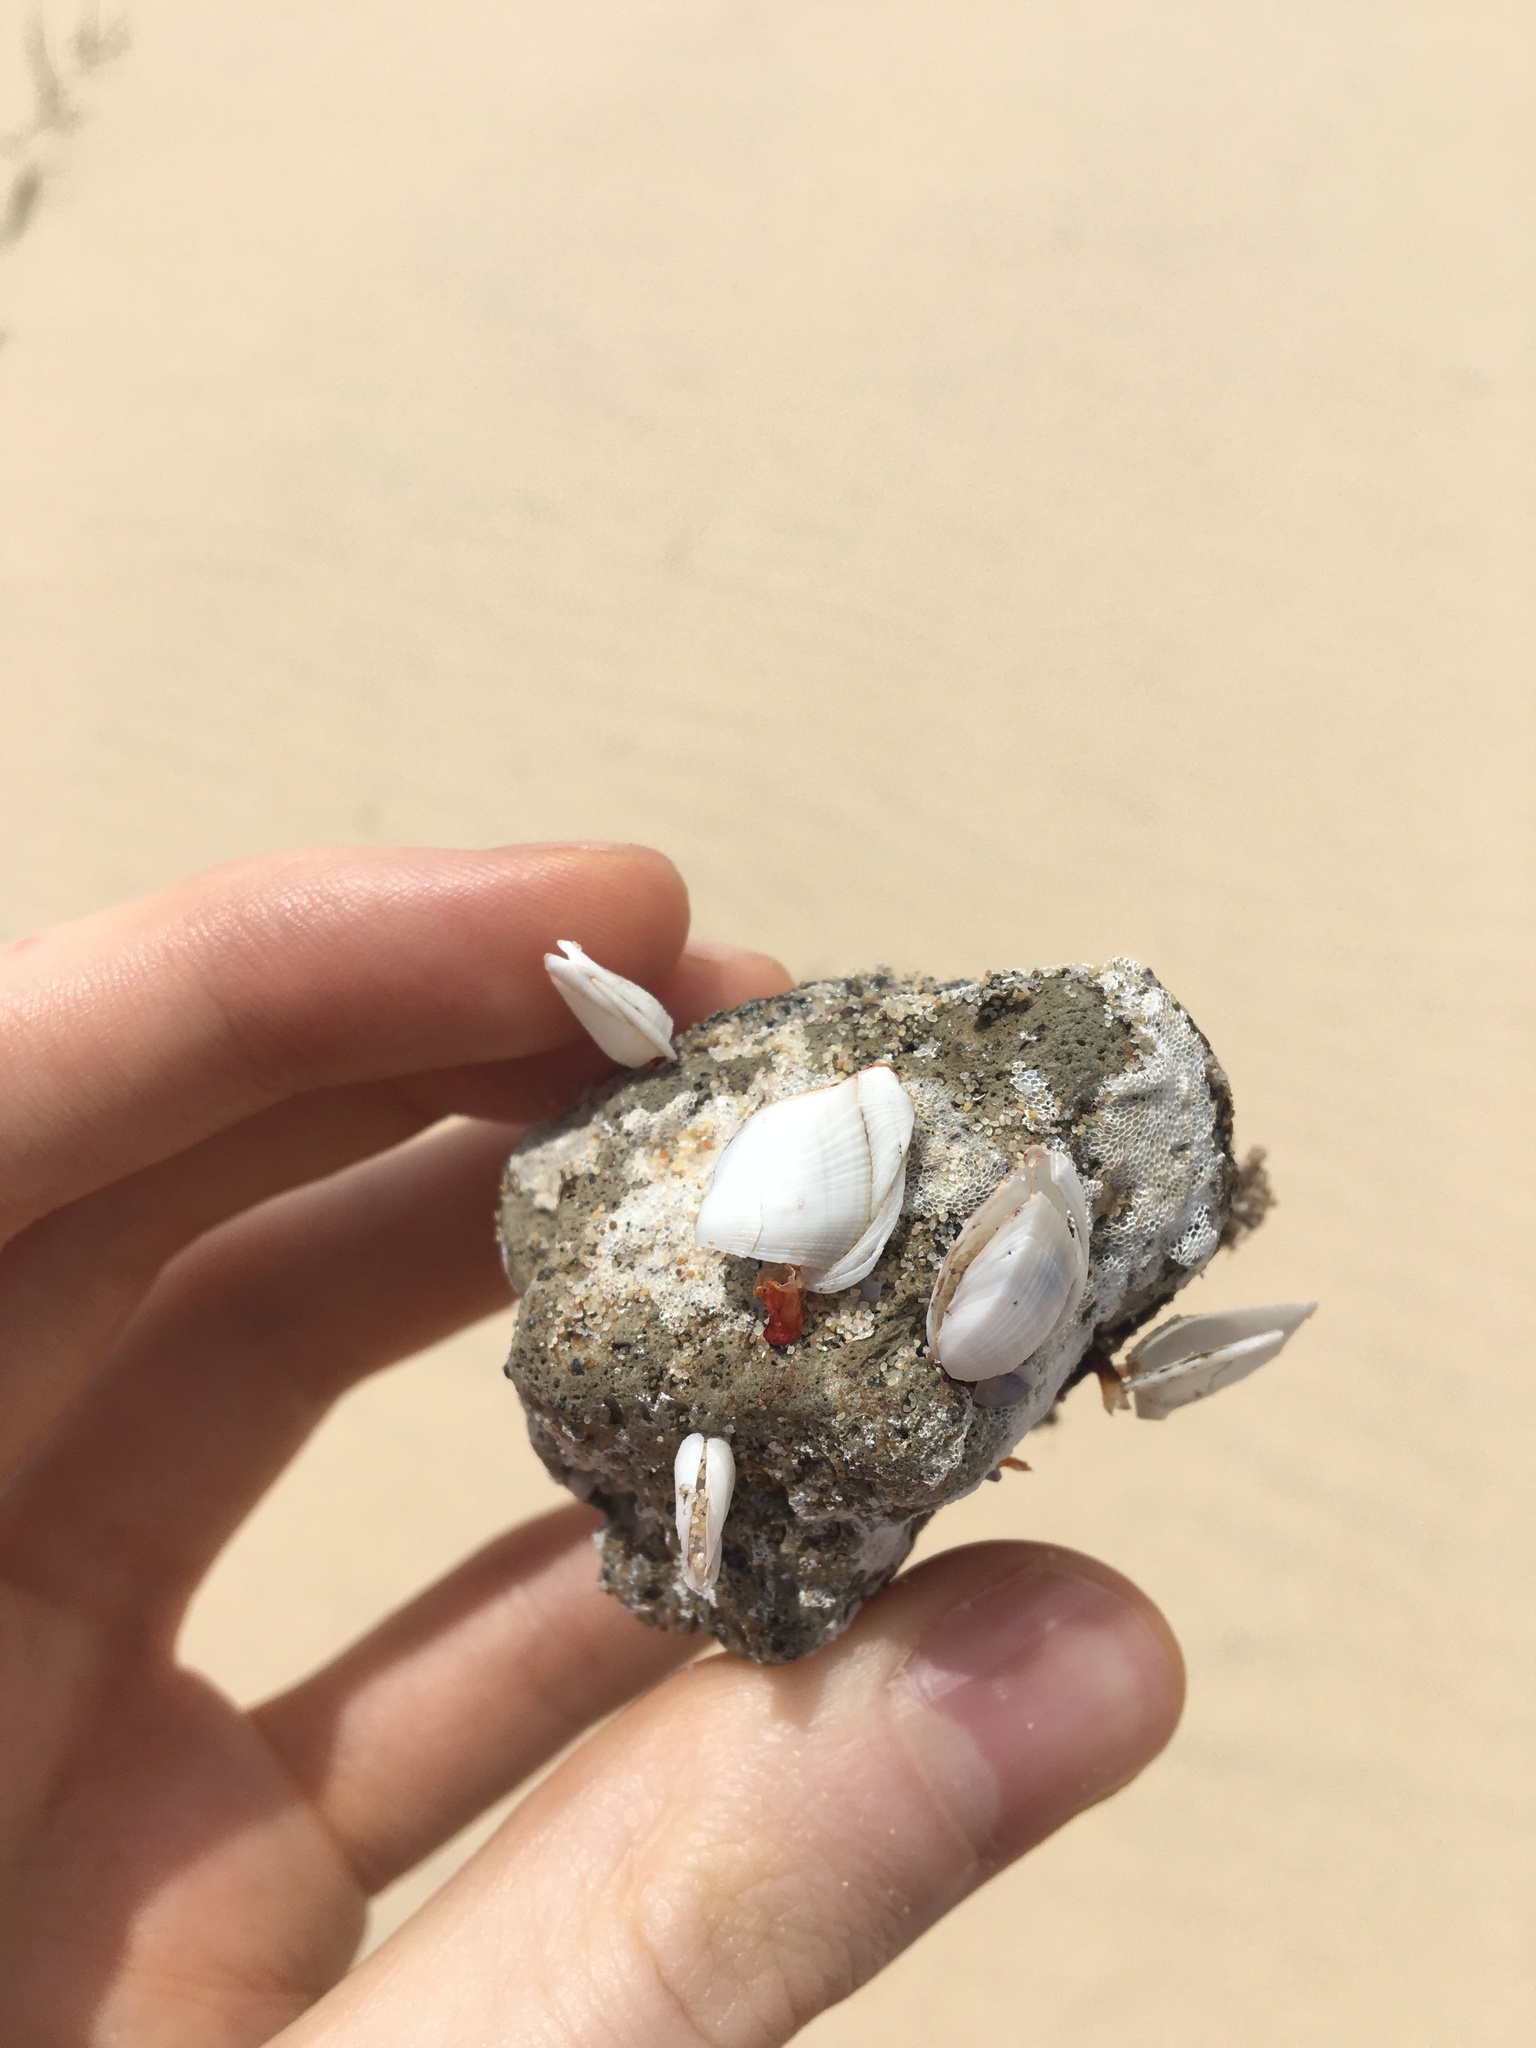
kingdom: Animalia
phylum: Arthropoda
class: Maxillopoda
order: Pedunculata
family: Lepadidae
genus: Lepas
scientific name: Lepas anserifera
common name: Goose barnacle
